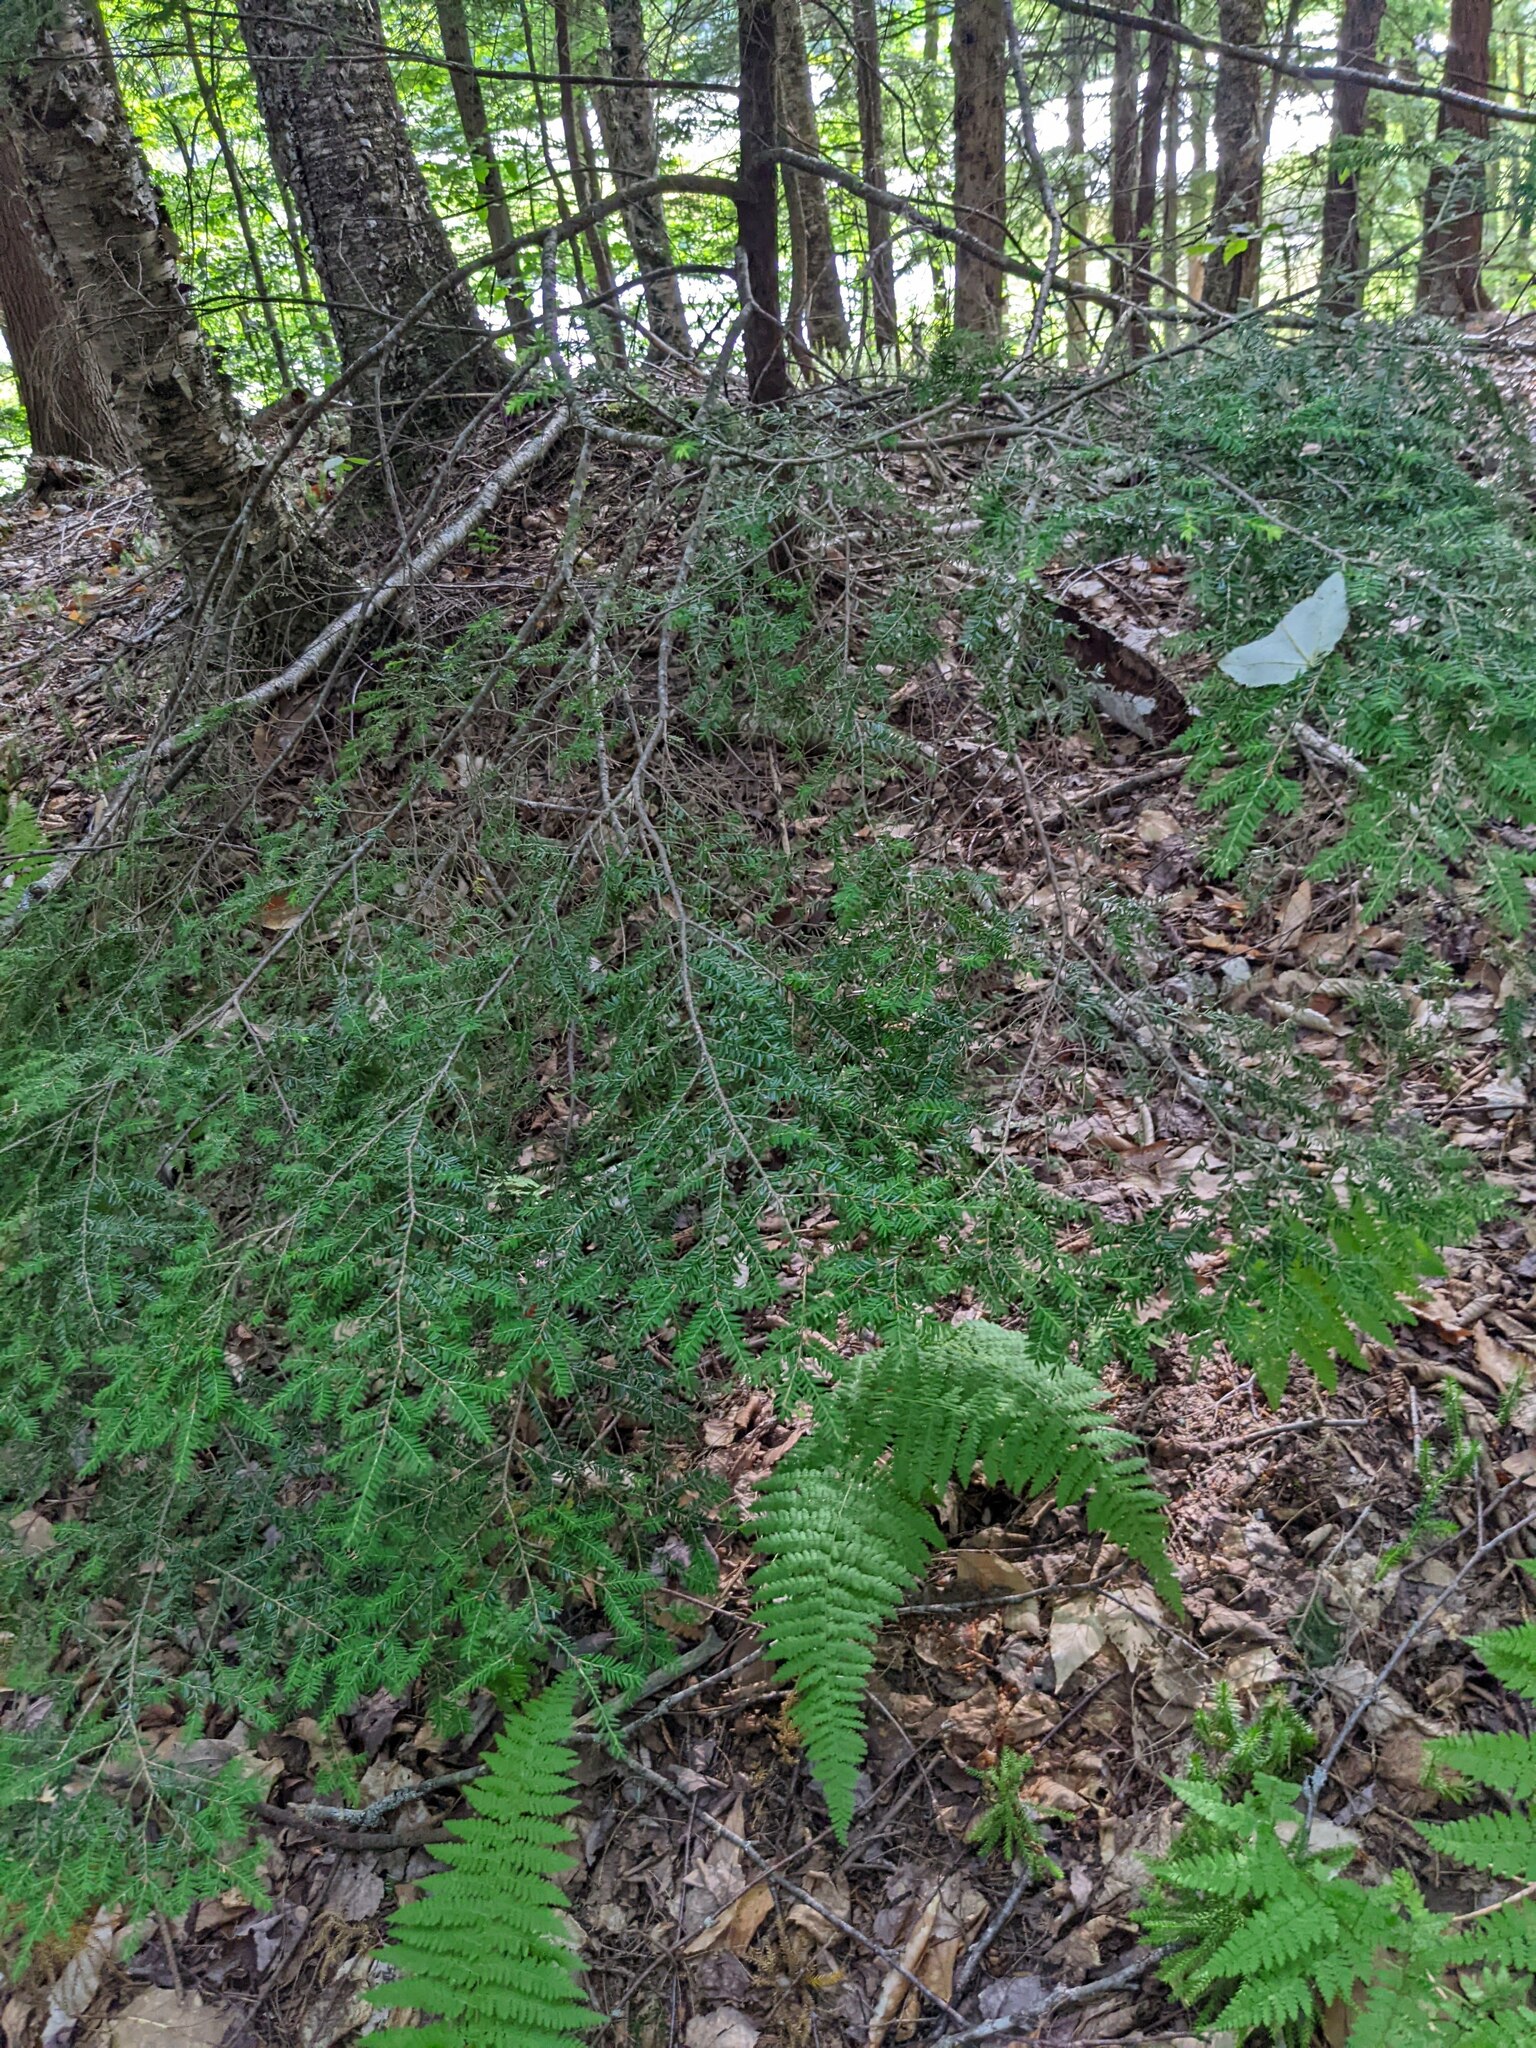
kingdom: Plantae
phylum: Tracheophyta
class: Pinopsida
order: Pinales
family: Pinaceae
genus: Tsuga
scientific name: Tsuga canadensis
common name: Eastern hemlock
